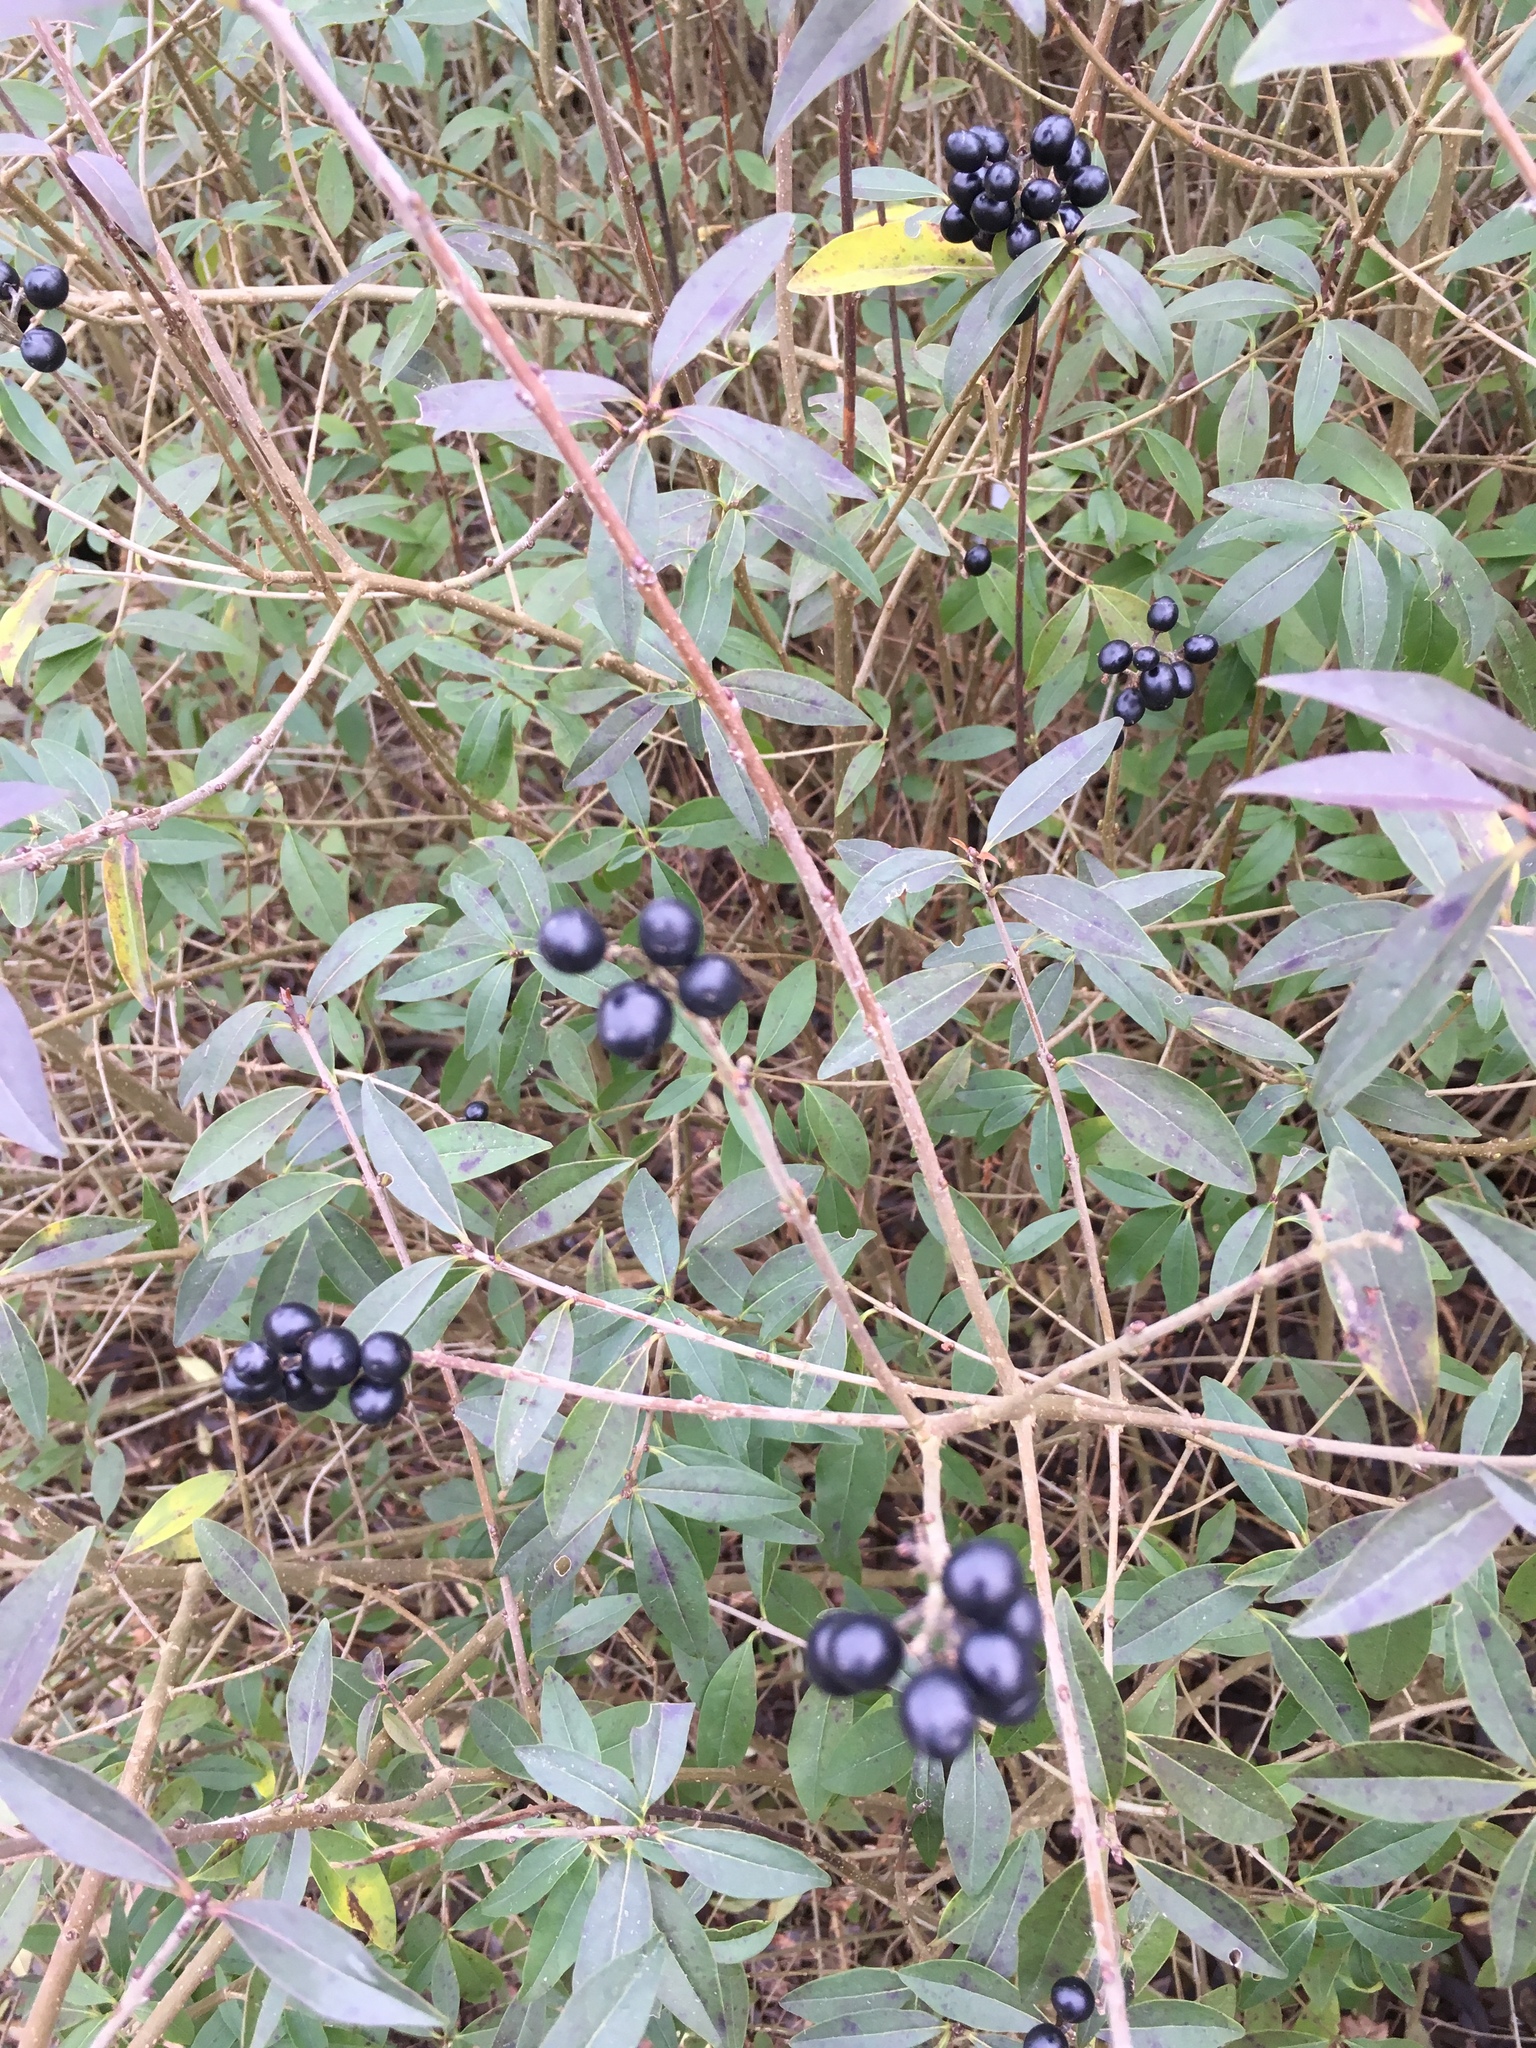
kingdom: Plantae
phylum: Tracheophyta
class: Magnoliopsida
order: Lamiales
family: Oleaceae
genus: Ligustrum
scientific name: Ligustrum vulgare
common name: Wild privet
